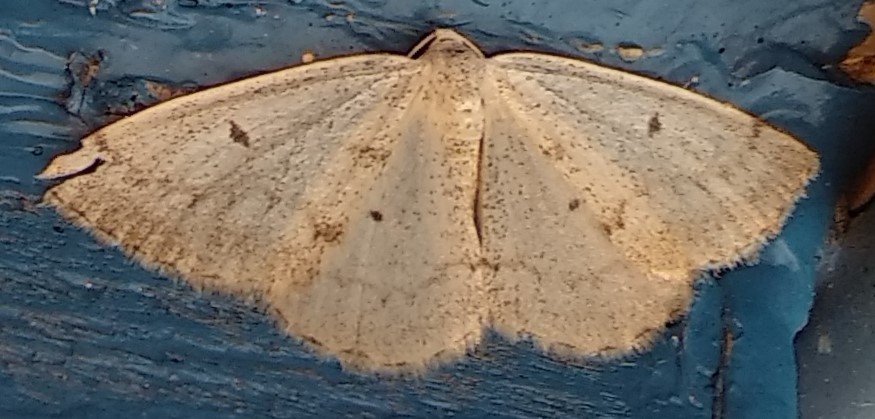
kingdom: Animalia
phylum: Arthropoda
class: Insecta
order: Lepidoptera
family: Geometridae
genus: Lomographa
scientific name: Lomographa glomeraria
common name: Gray spring moth
